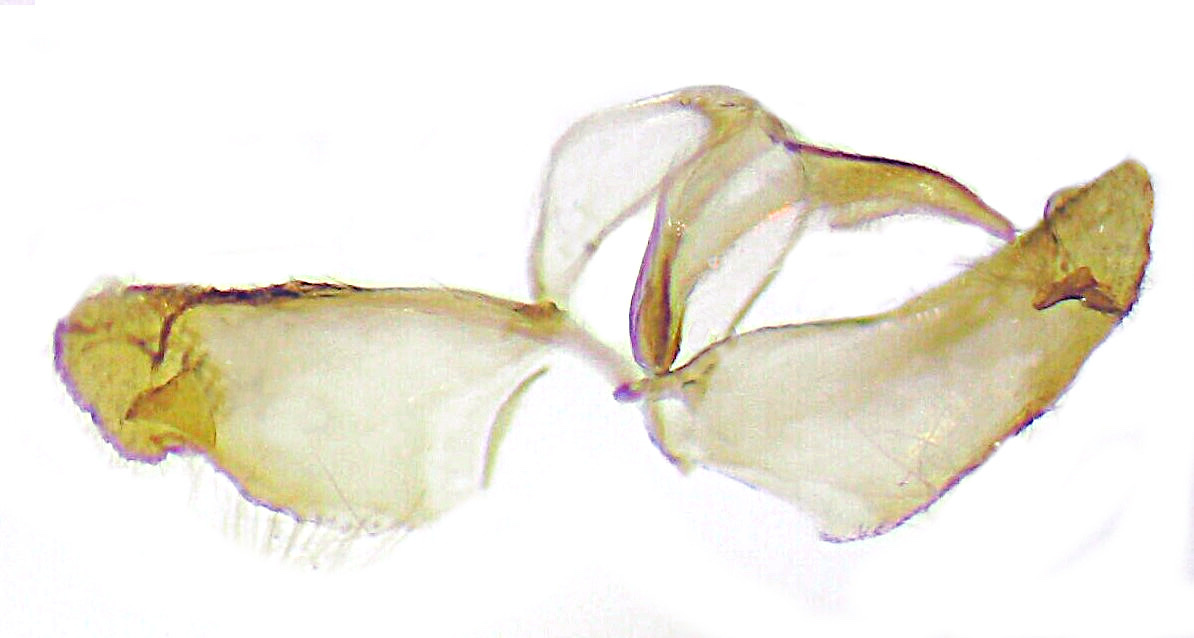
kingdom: Animalia
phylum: Arthropoda
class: Insecta
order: Lepidoptera
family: Tineidae
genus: Niditinea
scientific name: Niditinea fuscella
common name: Brown-dotted clothes moth
